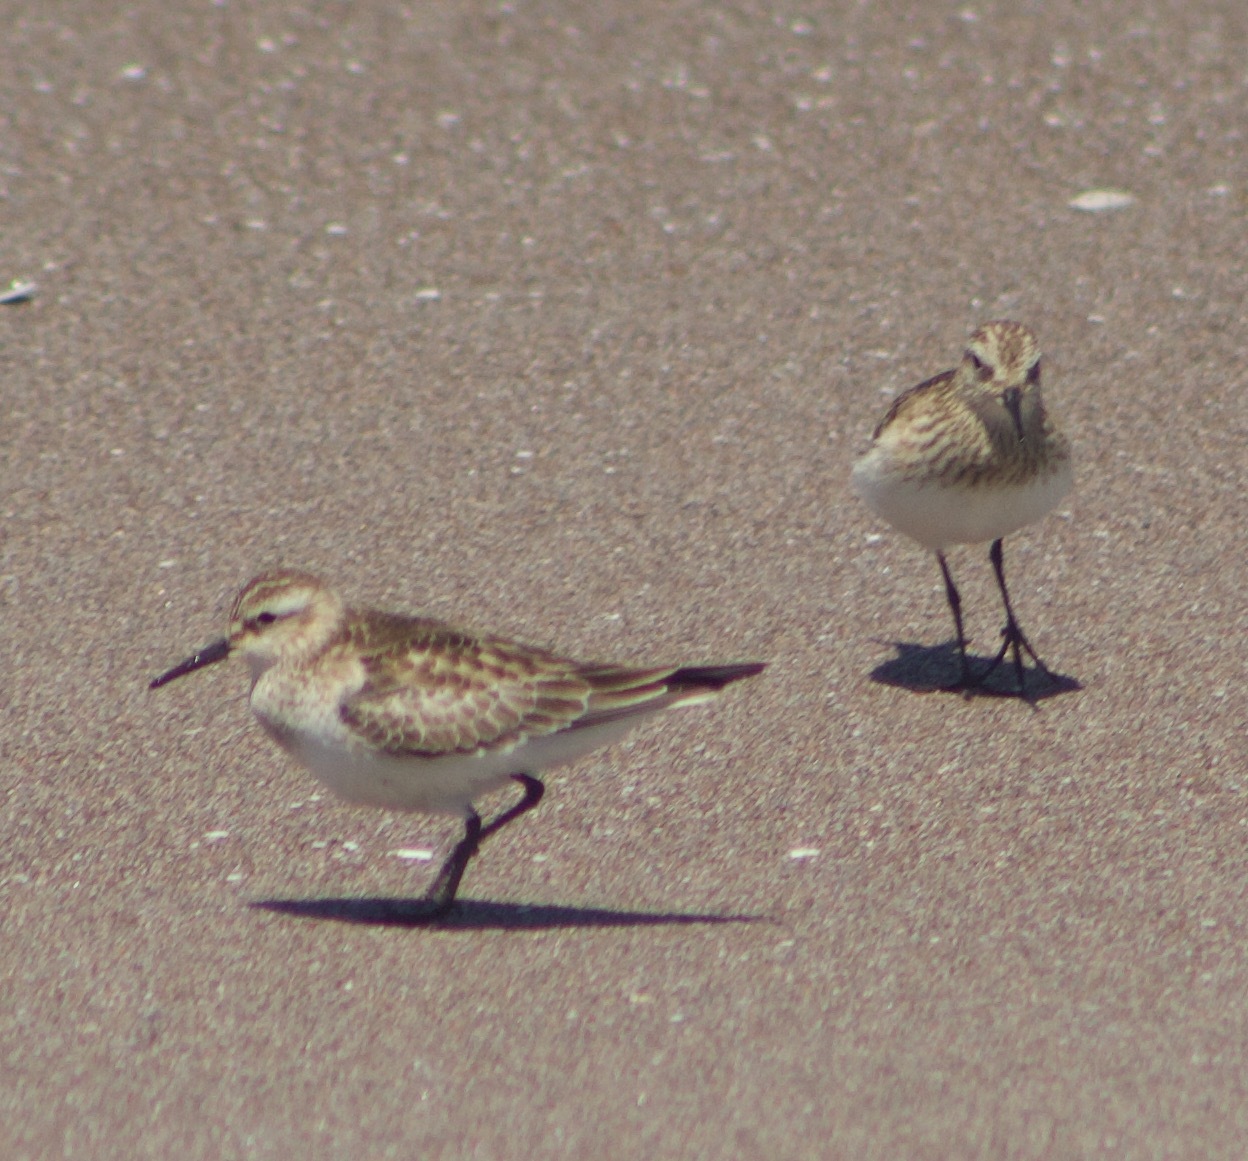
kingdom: Animalia
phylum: Chordata
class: Aves
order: Charadriiformes
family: Scolopacidae
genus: Calidris
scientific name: Calidris bairdii
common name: Baird's sandpiper
